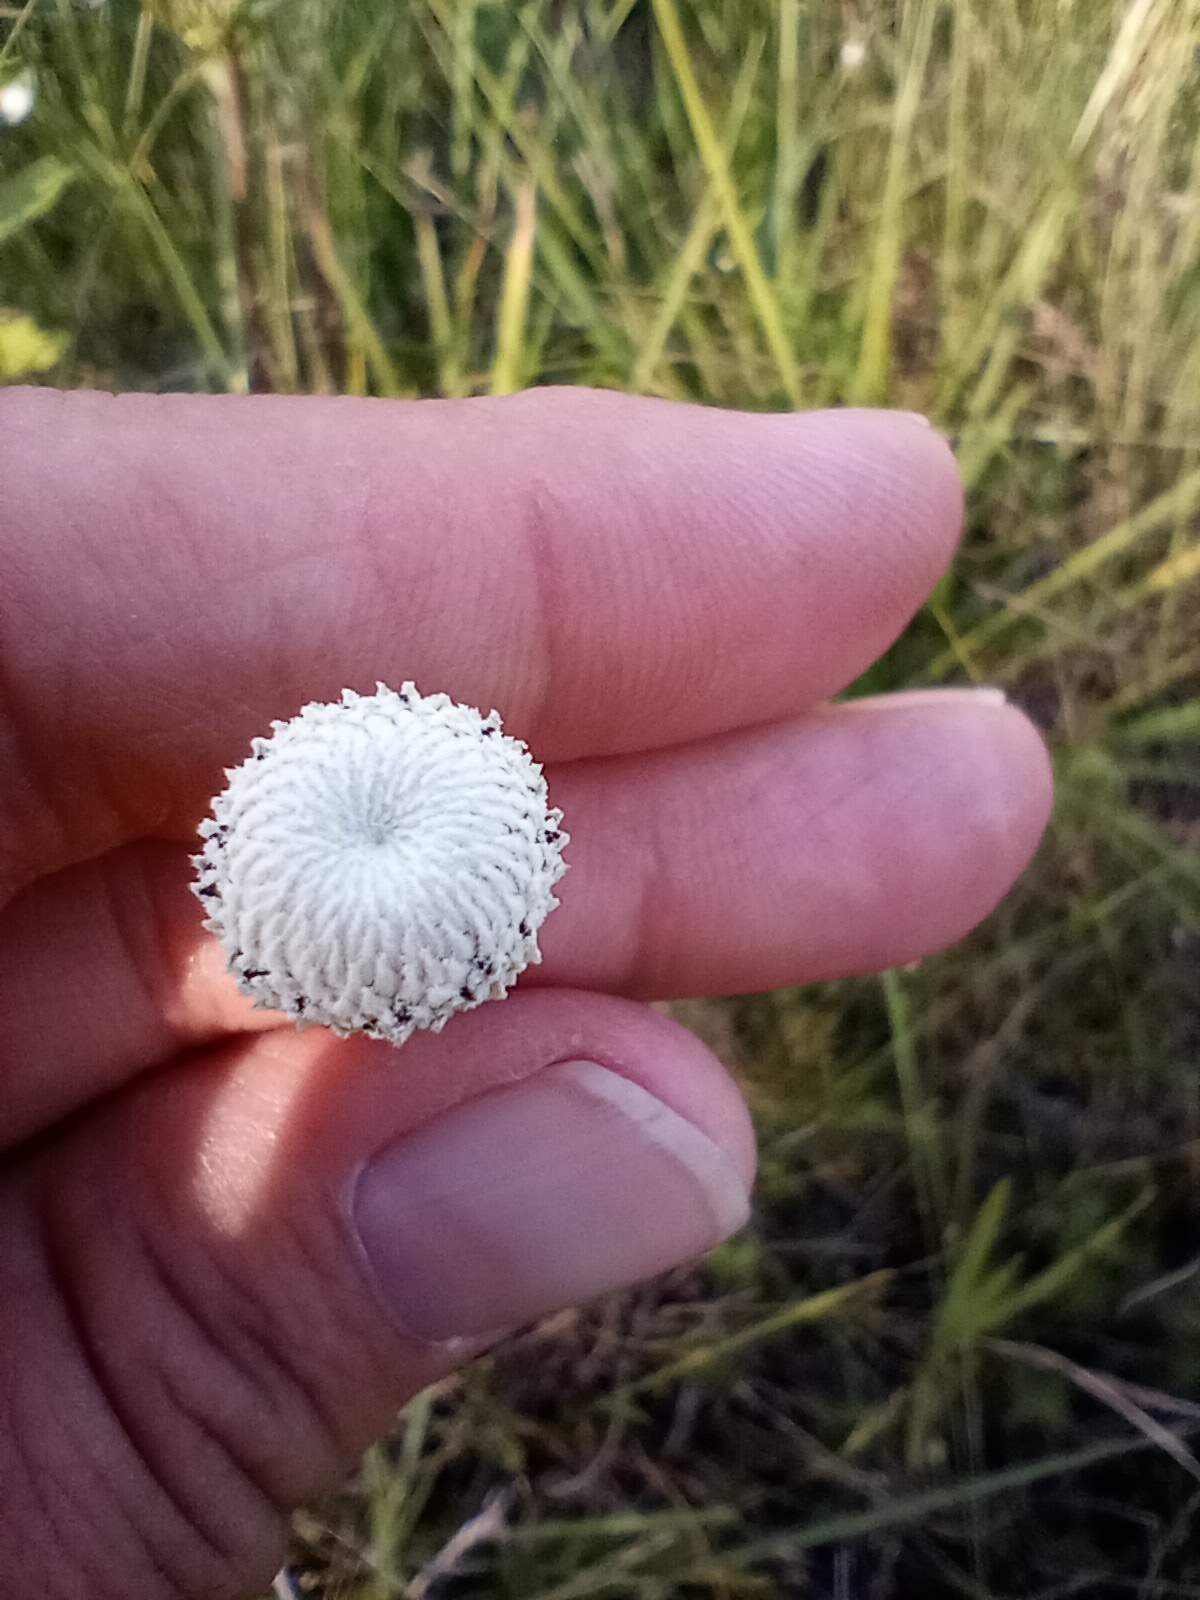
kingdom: Plantae
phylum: Tracheophyta
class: Liliopsida
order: Poales
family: Eriocaulaceae
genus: Eriocaulon
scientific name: Eriocaulon decangulare
